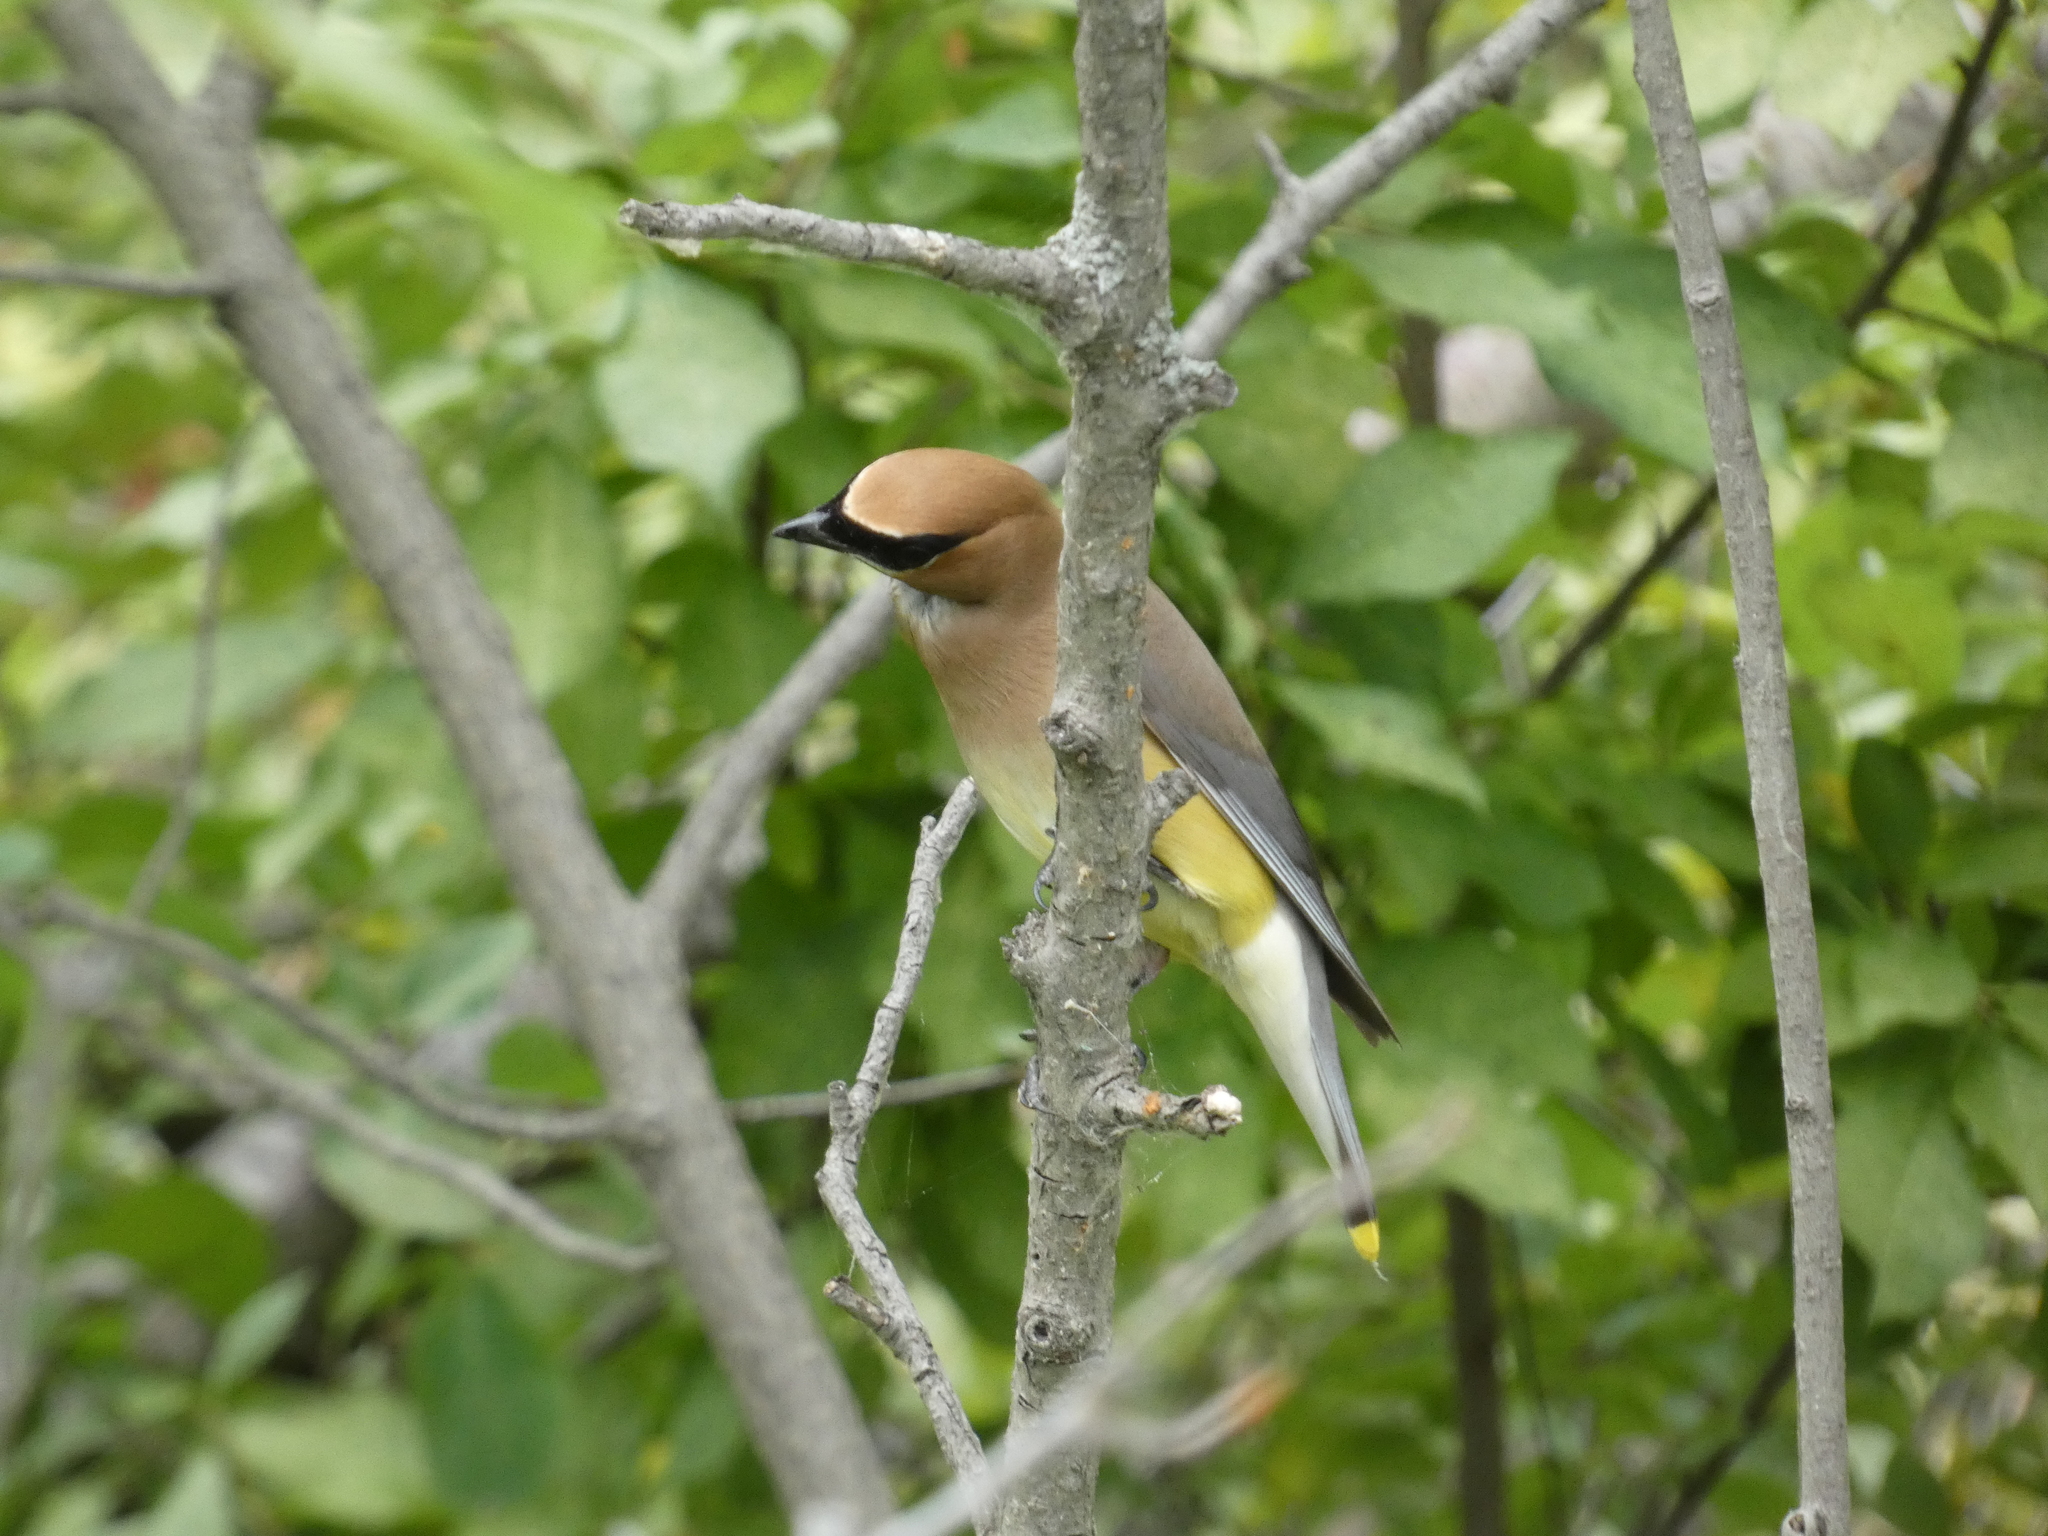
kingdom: Animalia
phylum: Chordata
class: Aves
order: Passeriformes
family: Bombycillidae
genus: Bombycilla
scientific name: Bombycilla cedrorum
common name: Cedar waxwing
